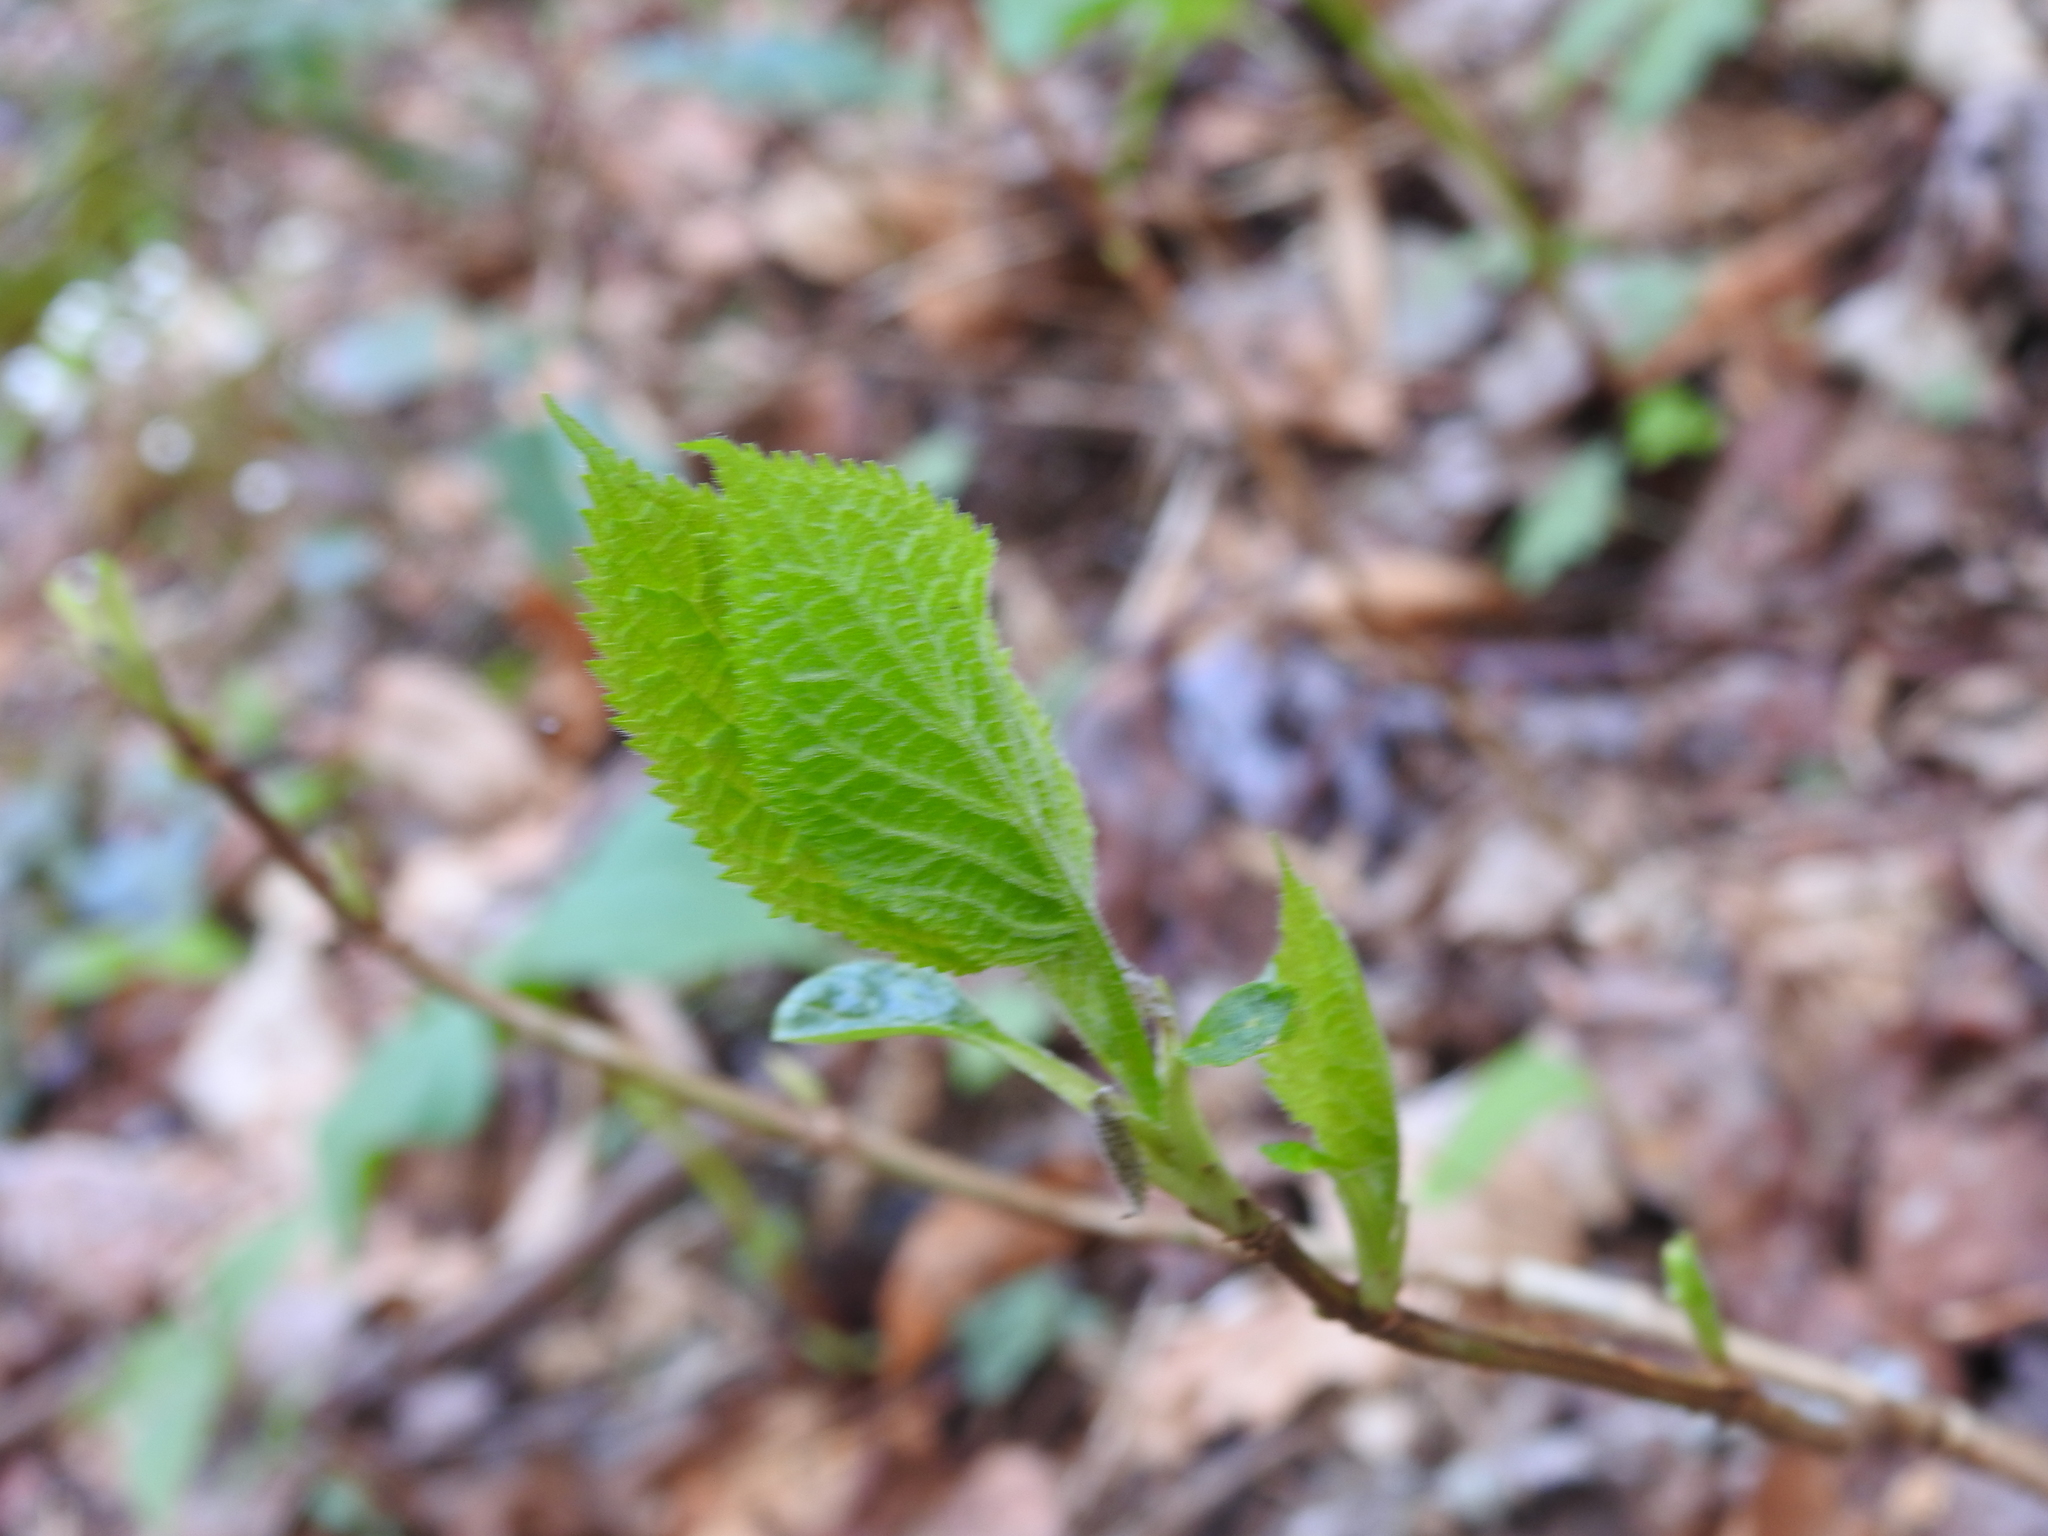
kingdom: Plantae
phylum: Tracheophyta
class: Magnoliopsida
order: Cornales
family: Hydrangeaceae
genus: Hydrangea
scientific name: Hydrangea arborescens
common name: Sevenbark
